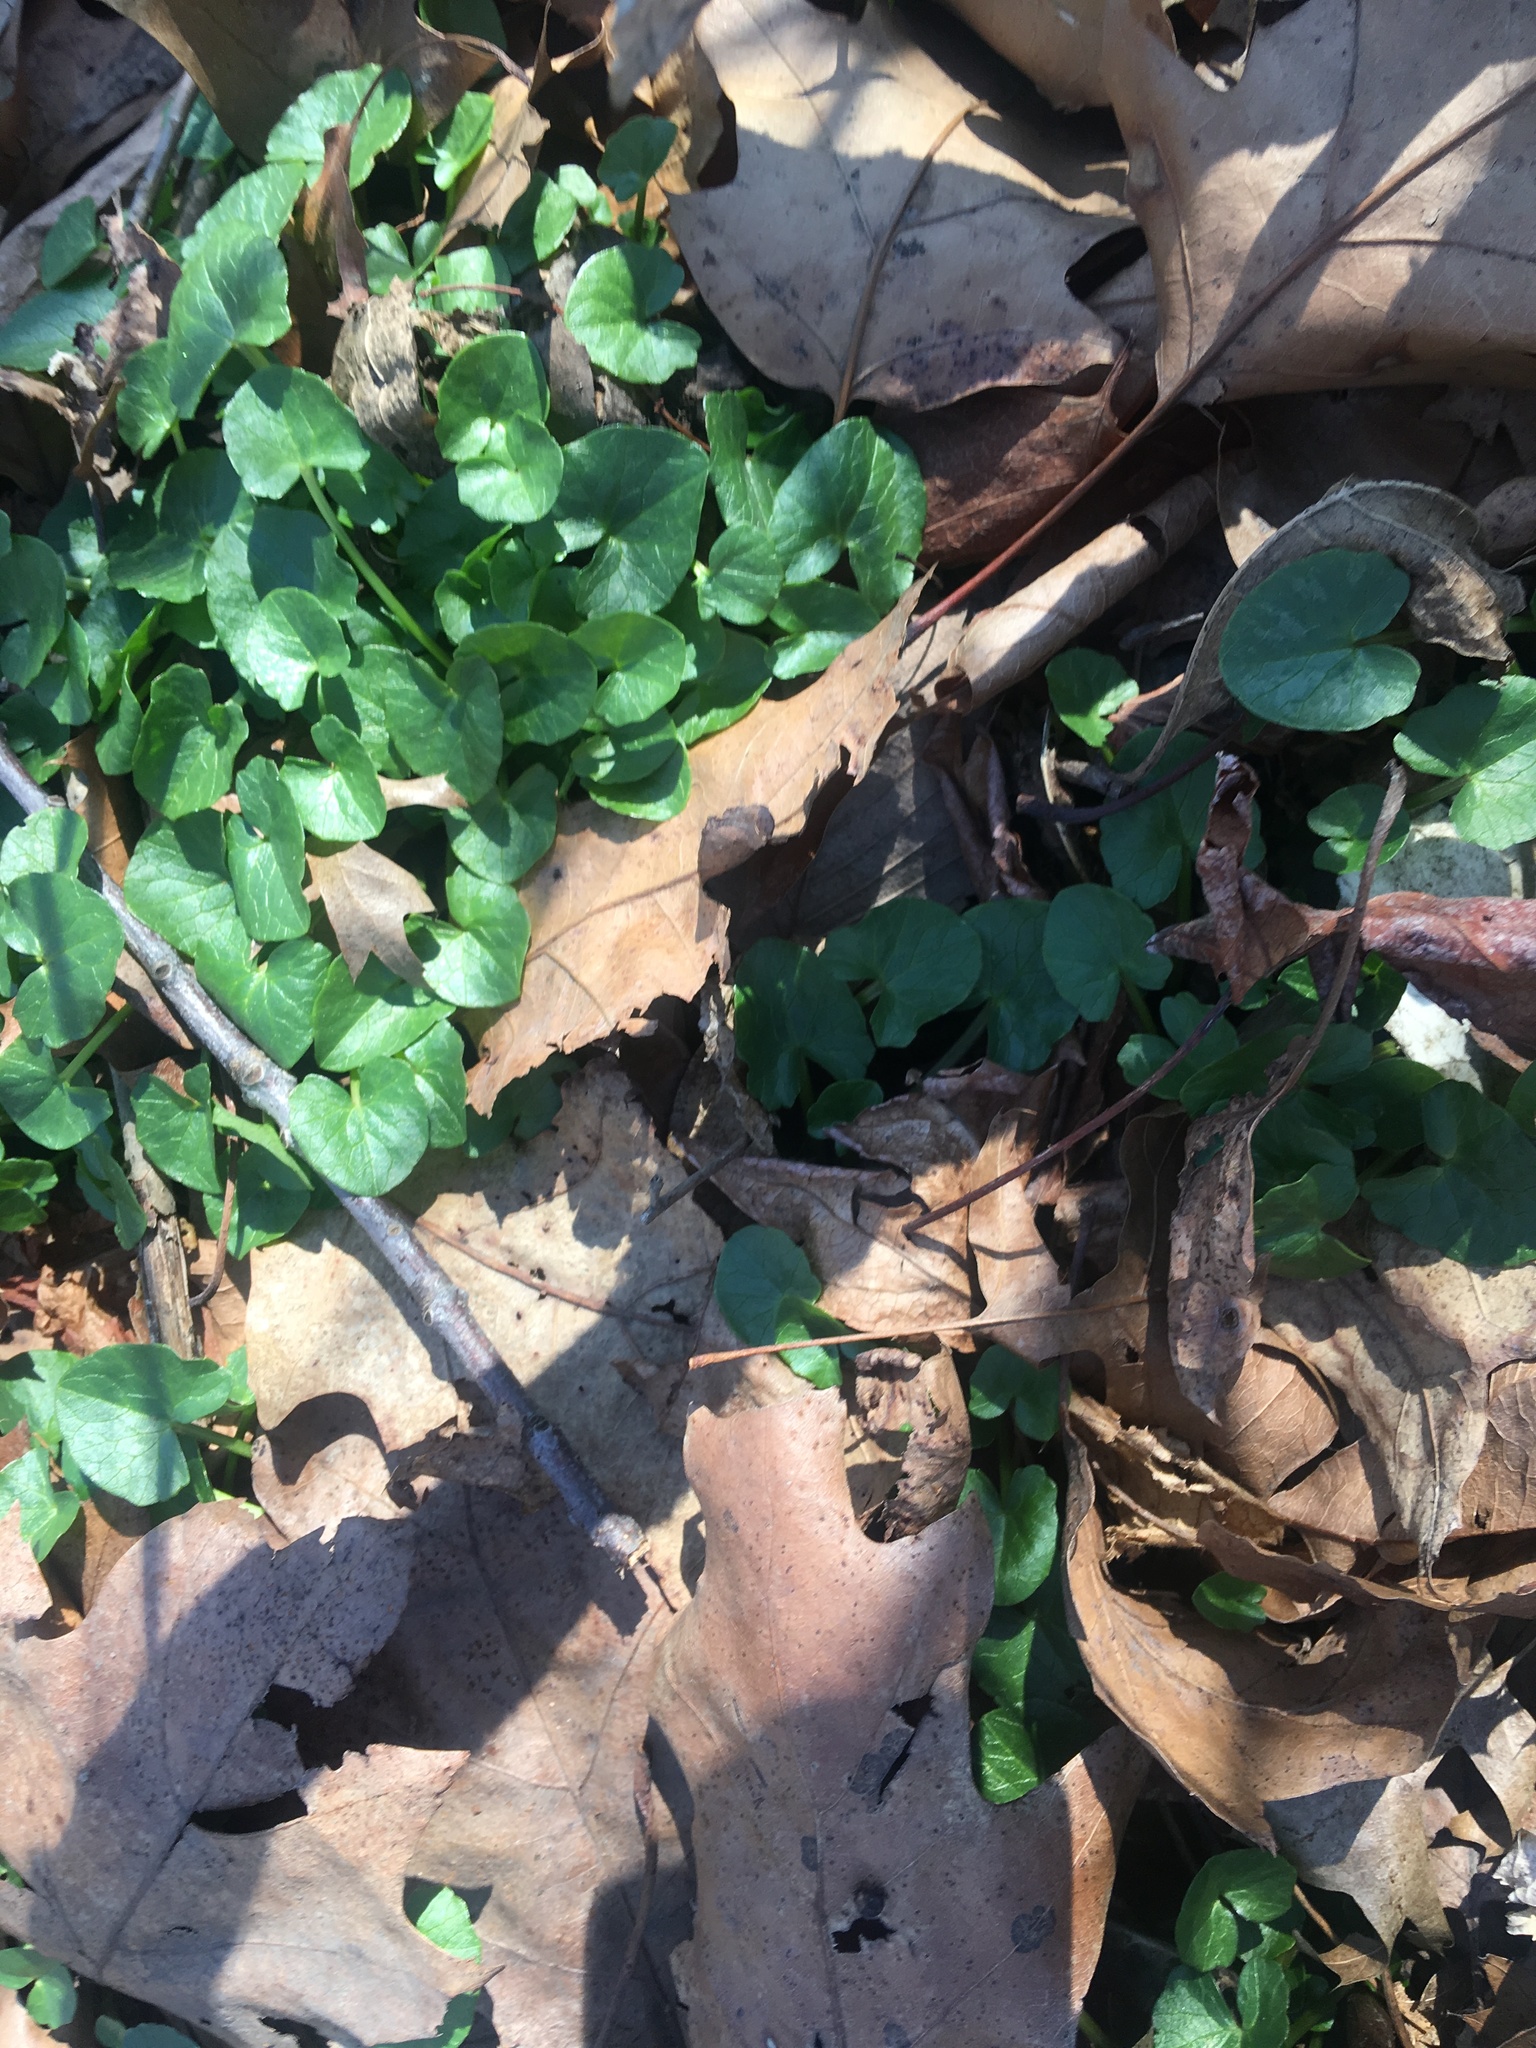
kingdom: Plantae
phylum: Tracheophyta
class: Magnoliopsida
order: Ranunculales
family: Ranunculaceae
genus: Ficaria
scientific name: Ficaria verna
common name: Lesser celandine
